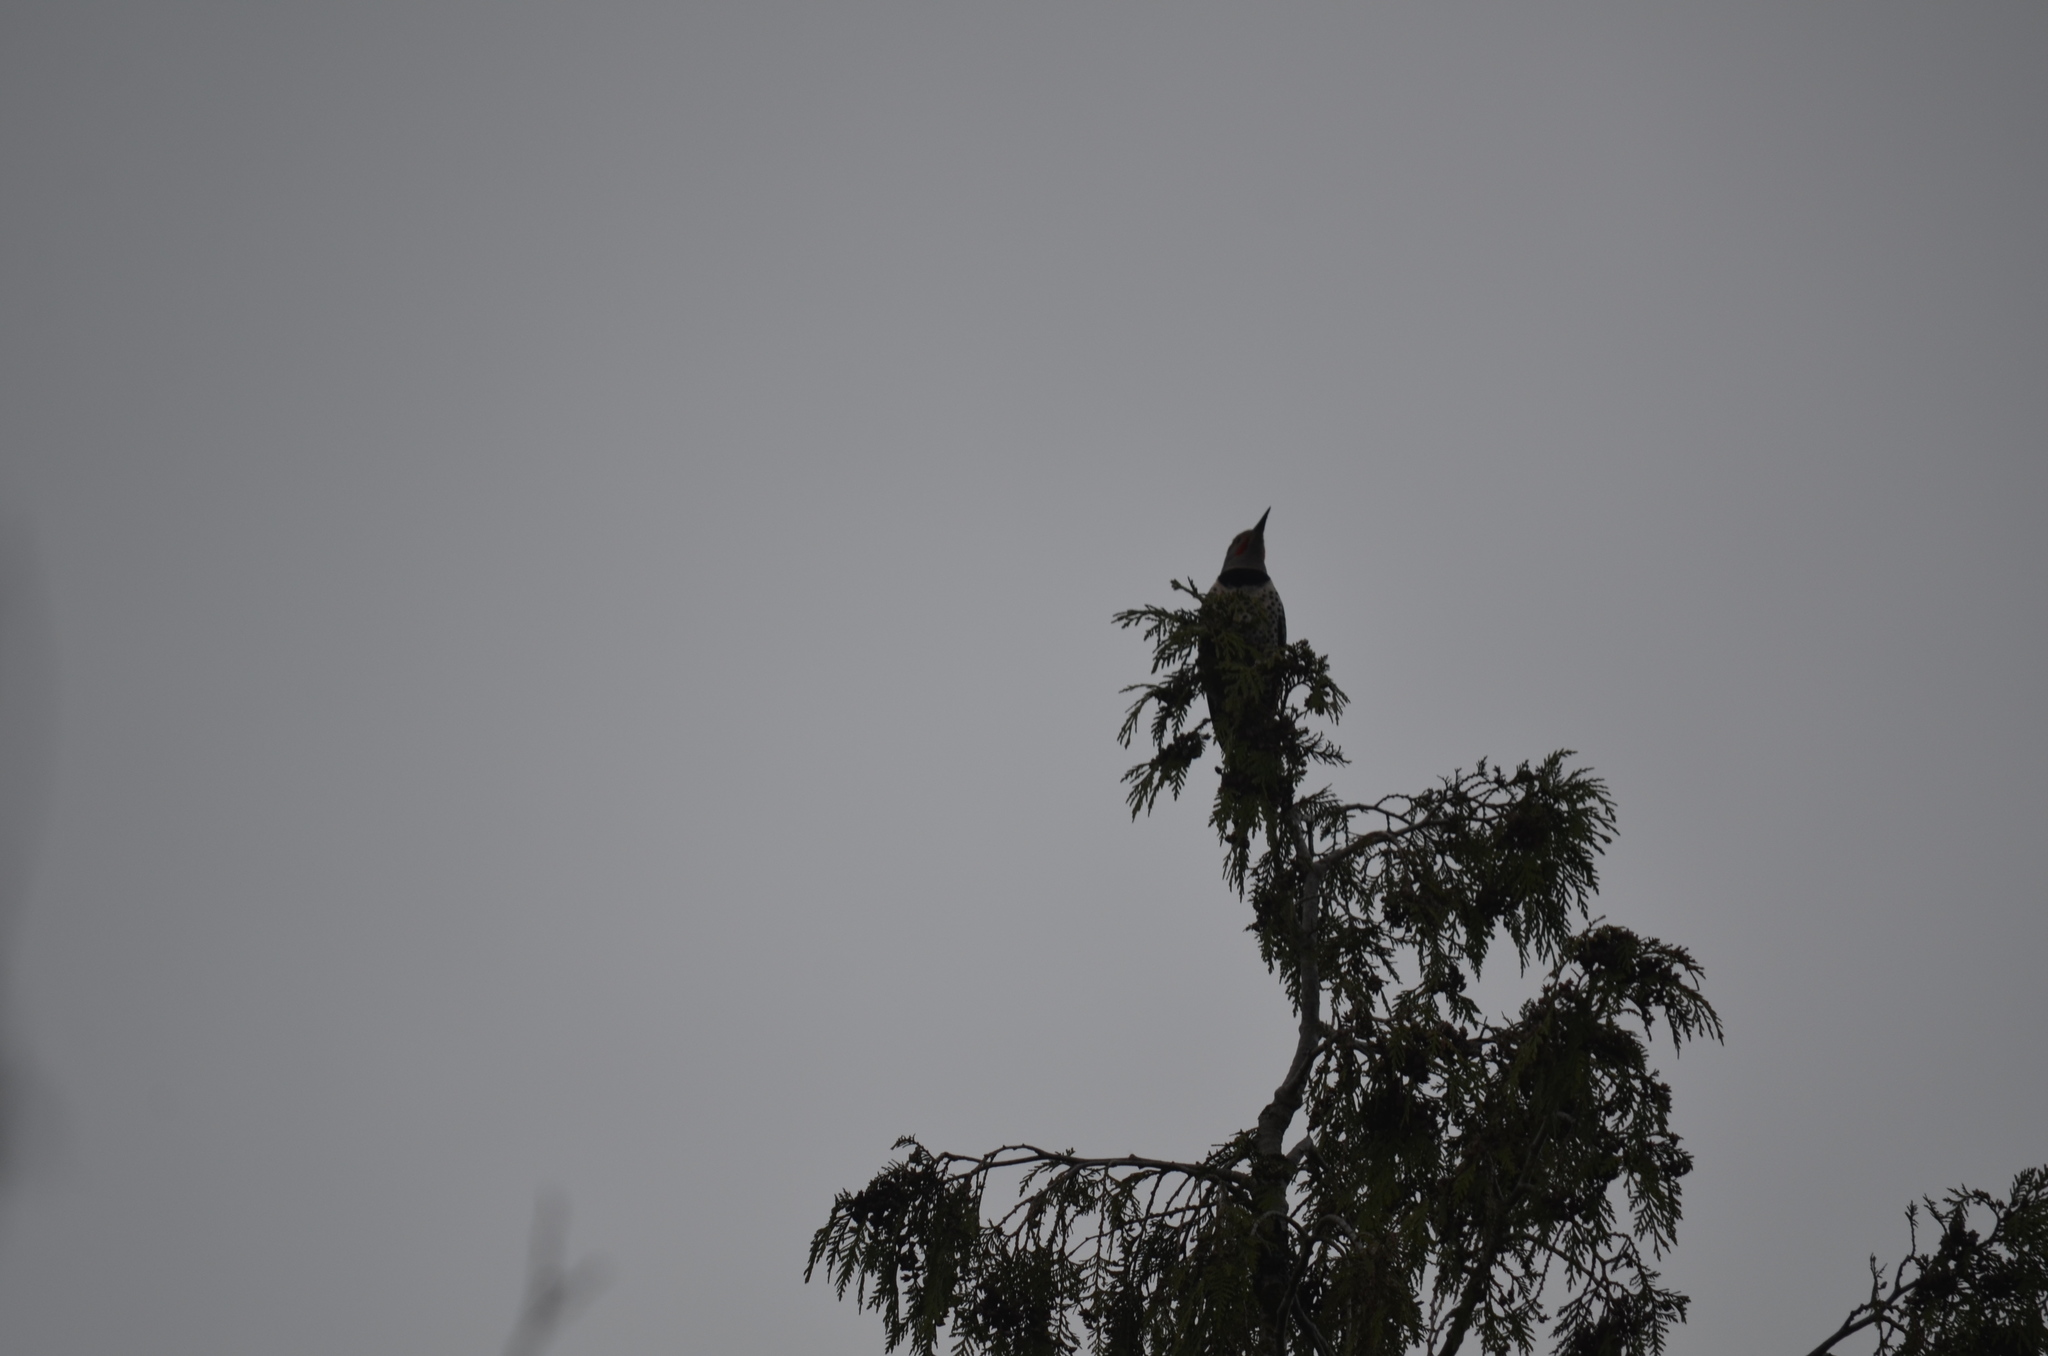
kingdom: Animalia
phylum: Chordata
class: Aves
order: Piciformes
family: Picidae
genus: Colaptes
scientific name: Colaptes auratus
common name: Northern flicker
